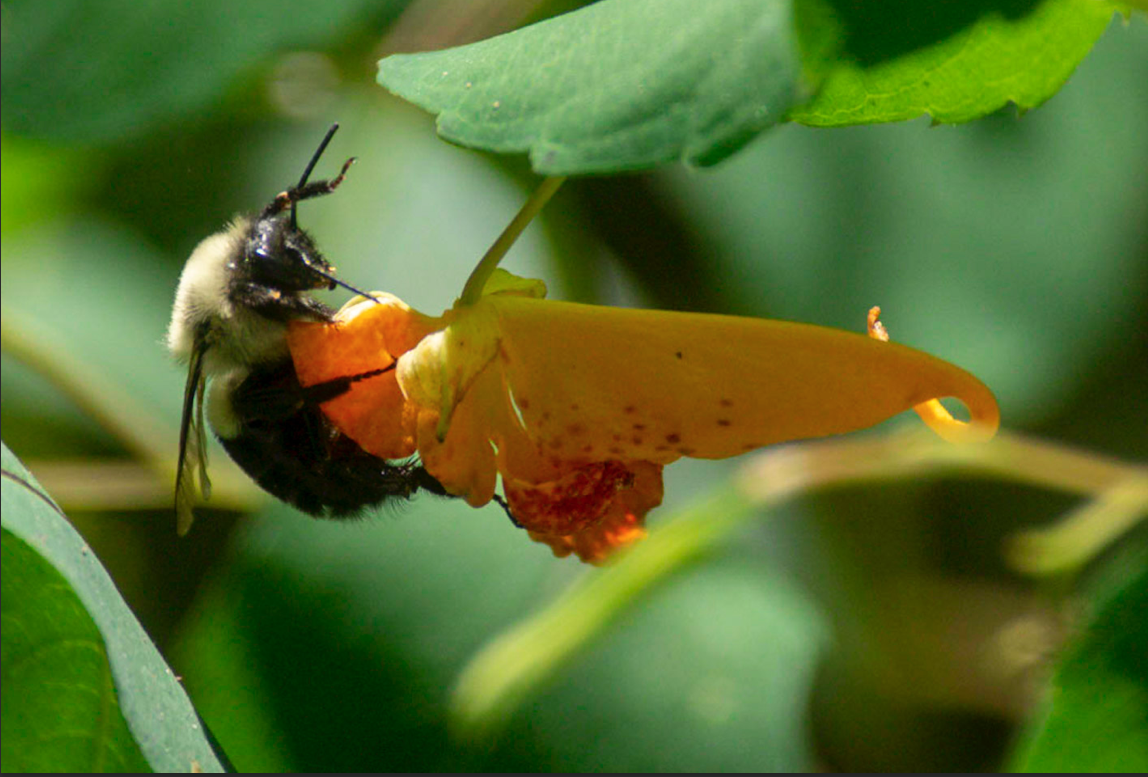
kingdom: Animalia
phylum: Arthropoda
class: Insecta
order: Hymenoptera
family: Apidae
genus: Bombus
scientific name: Bombus impatiens
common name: Common eastern bumble bee
